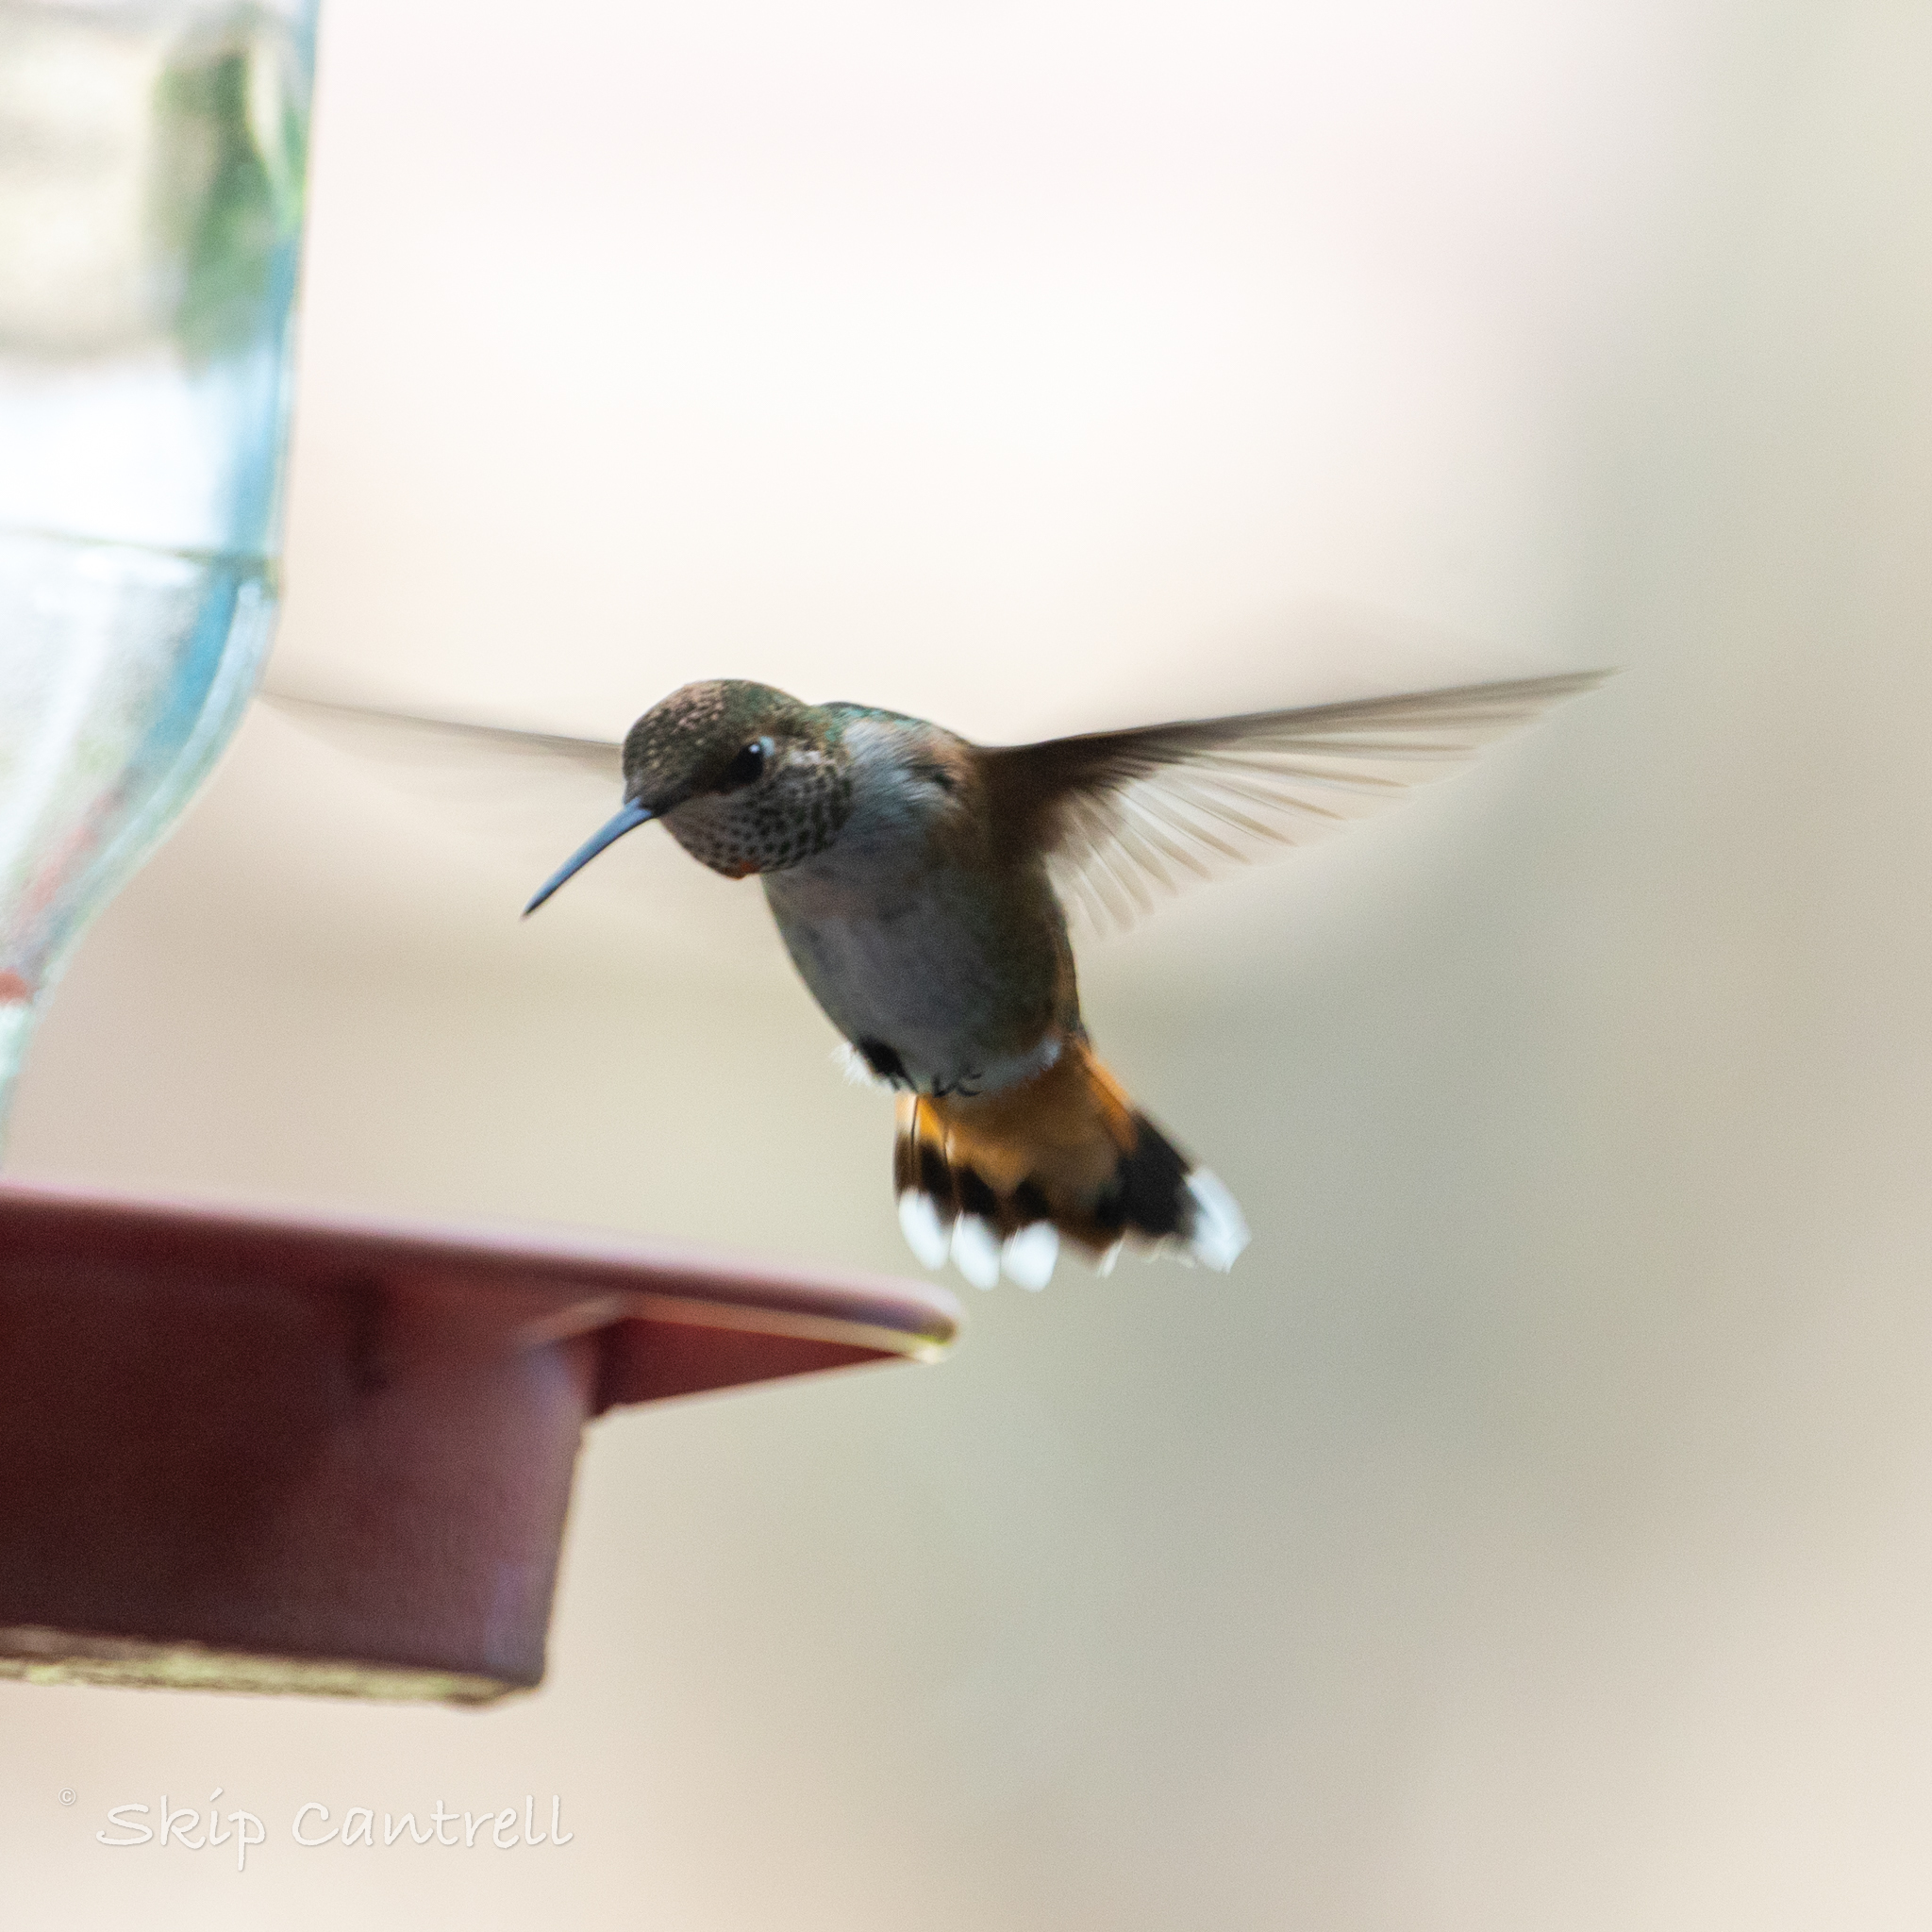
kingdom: Animalia
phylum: Chordata
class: Aves
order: Apodiformes
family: Trochilidae
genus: Selasphorus
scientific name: Selasphorus rufus
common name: Rufous hummingbird
